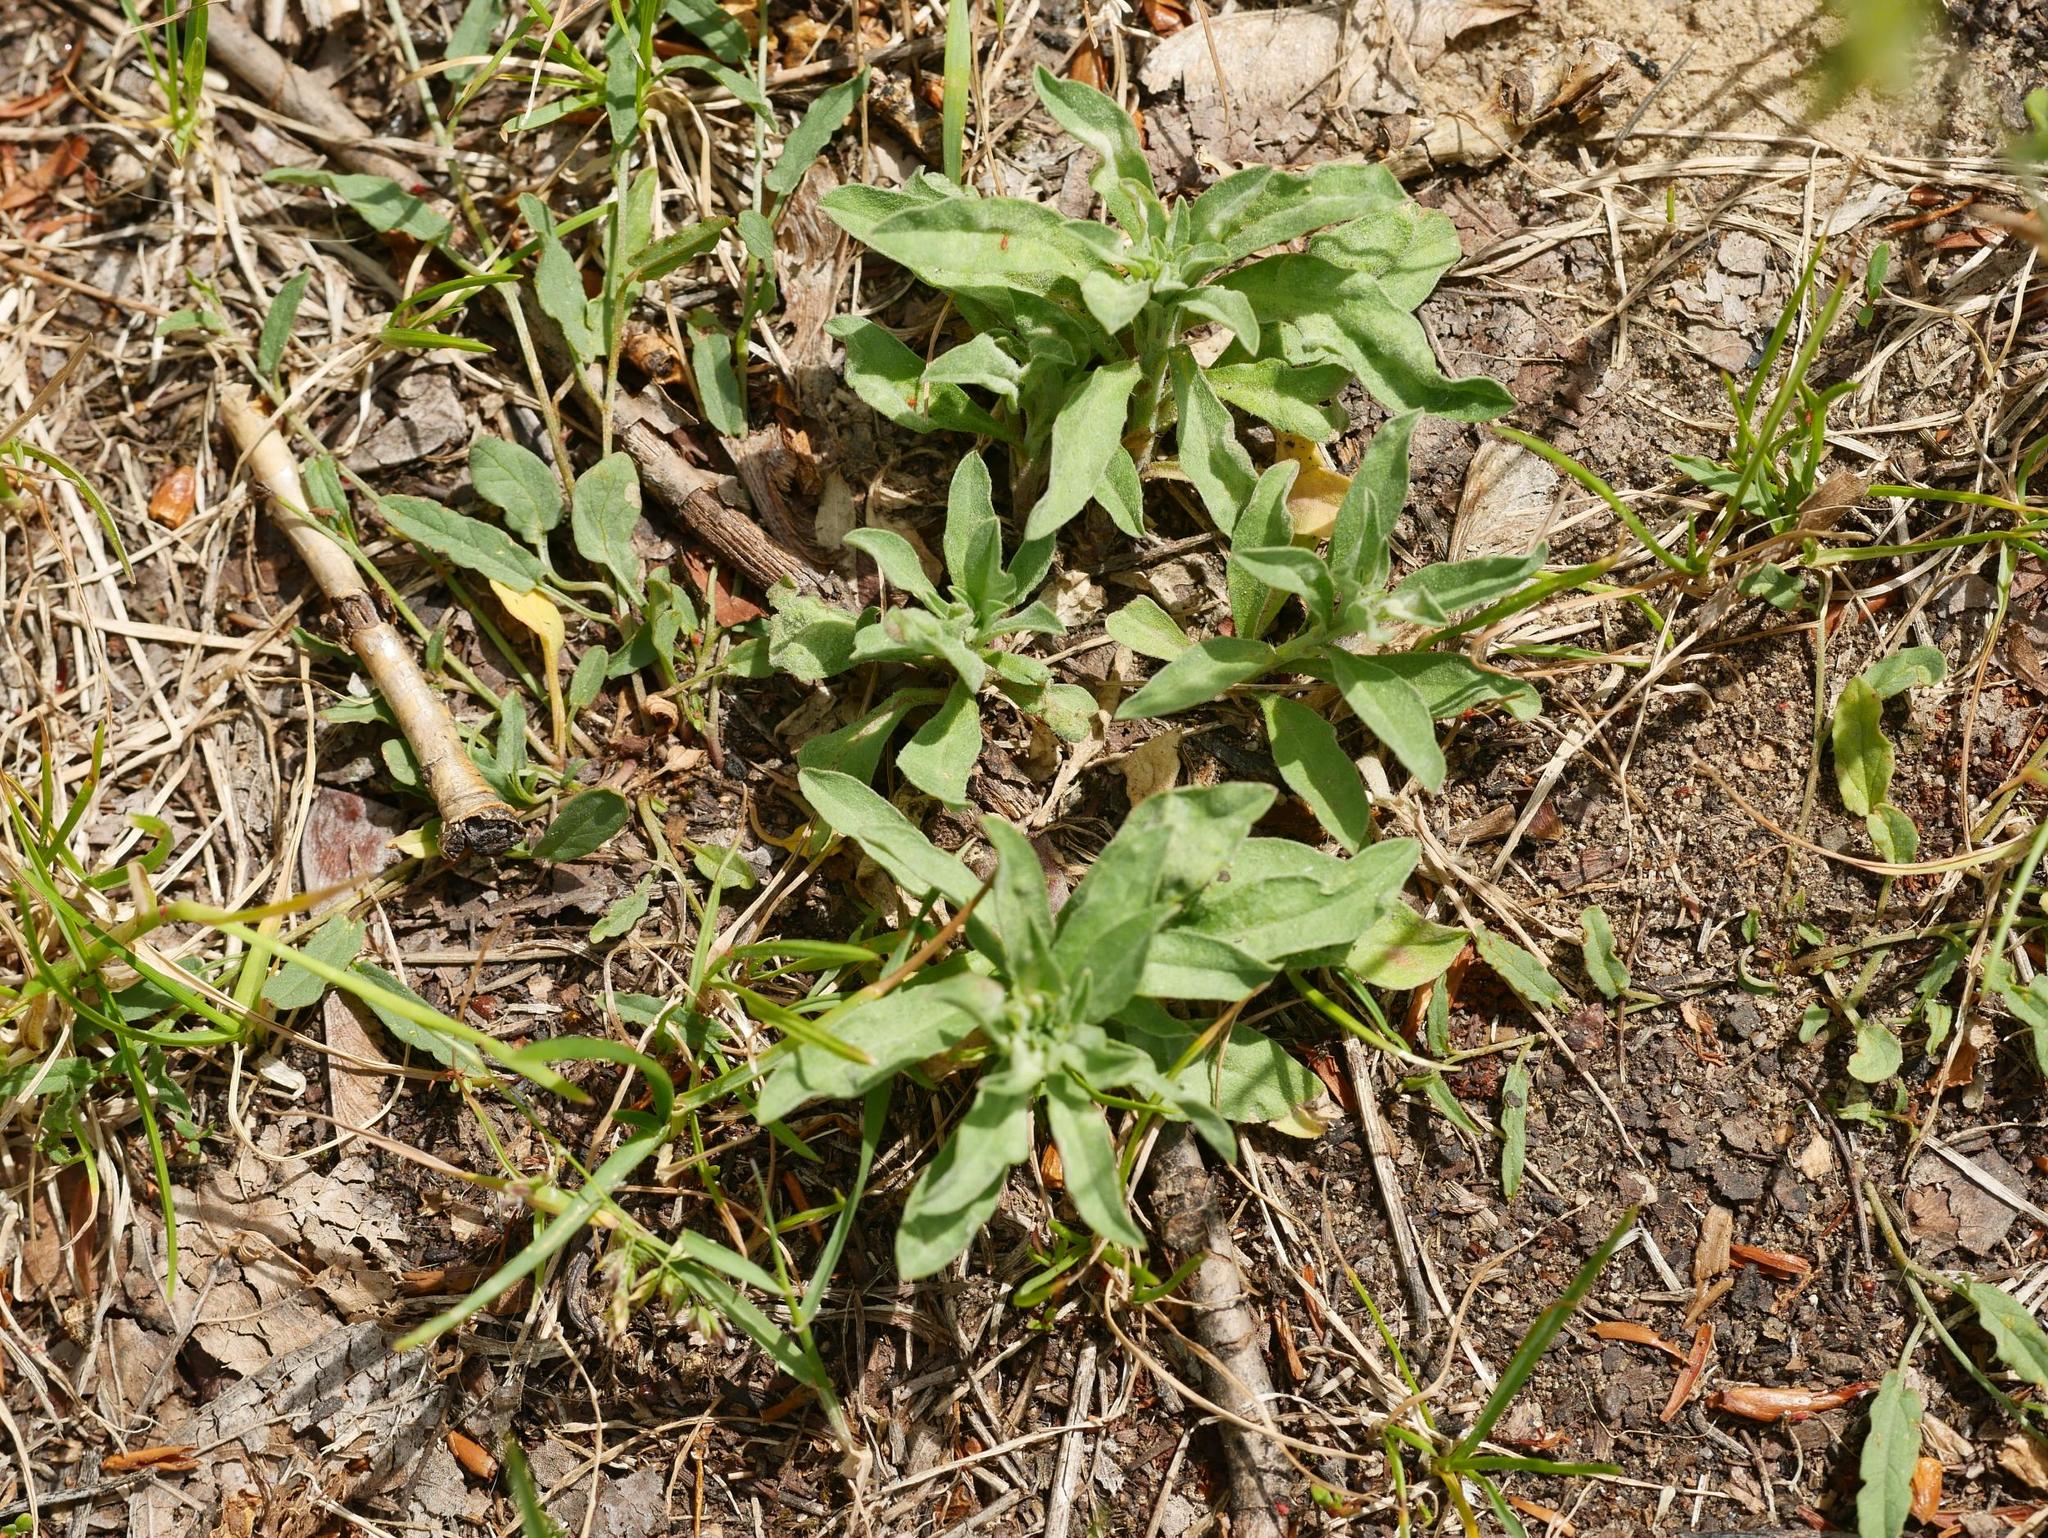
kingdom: Plantae
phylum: Tracheophyta
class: Magnoliopsida
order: Brassicales
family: Brassicaceae
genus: Berteroa
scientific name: Berteroa incana
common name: Hoary alison
